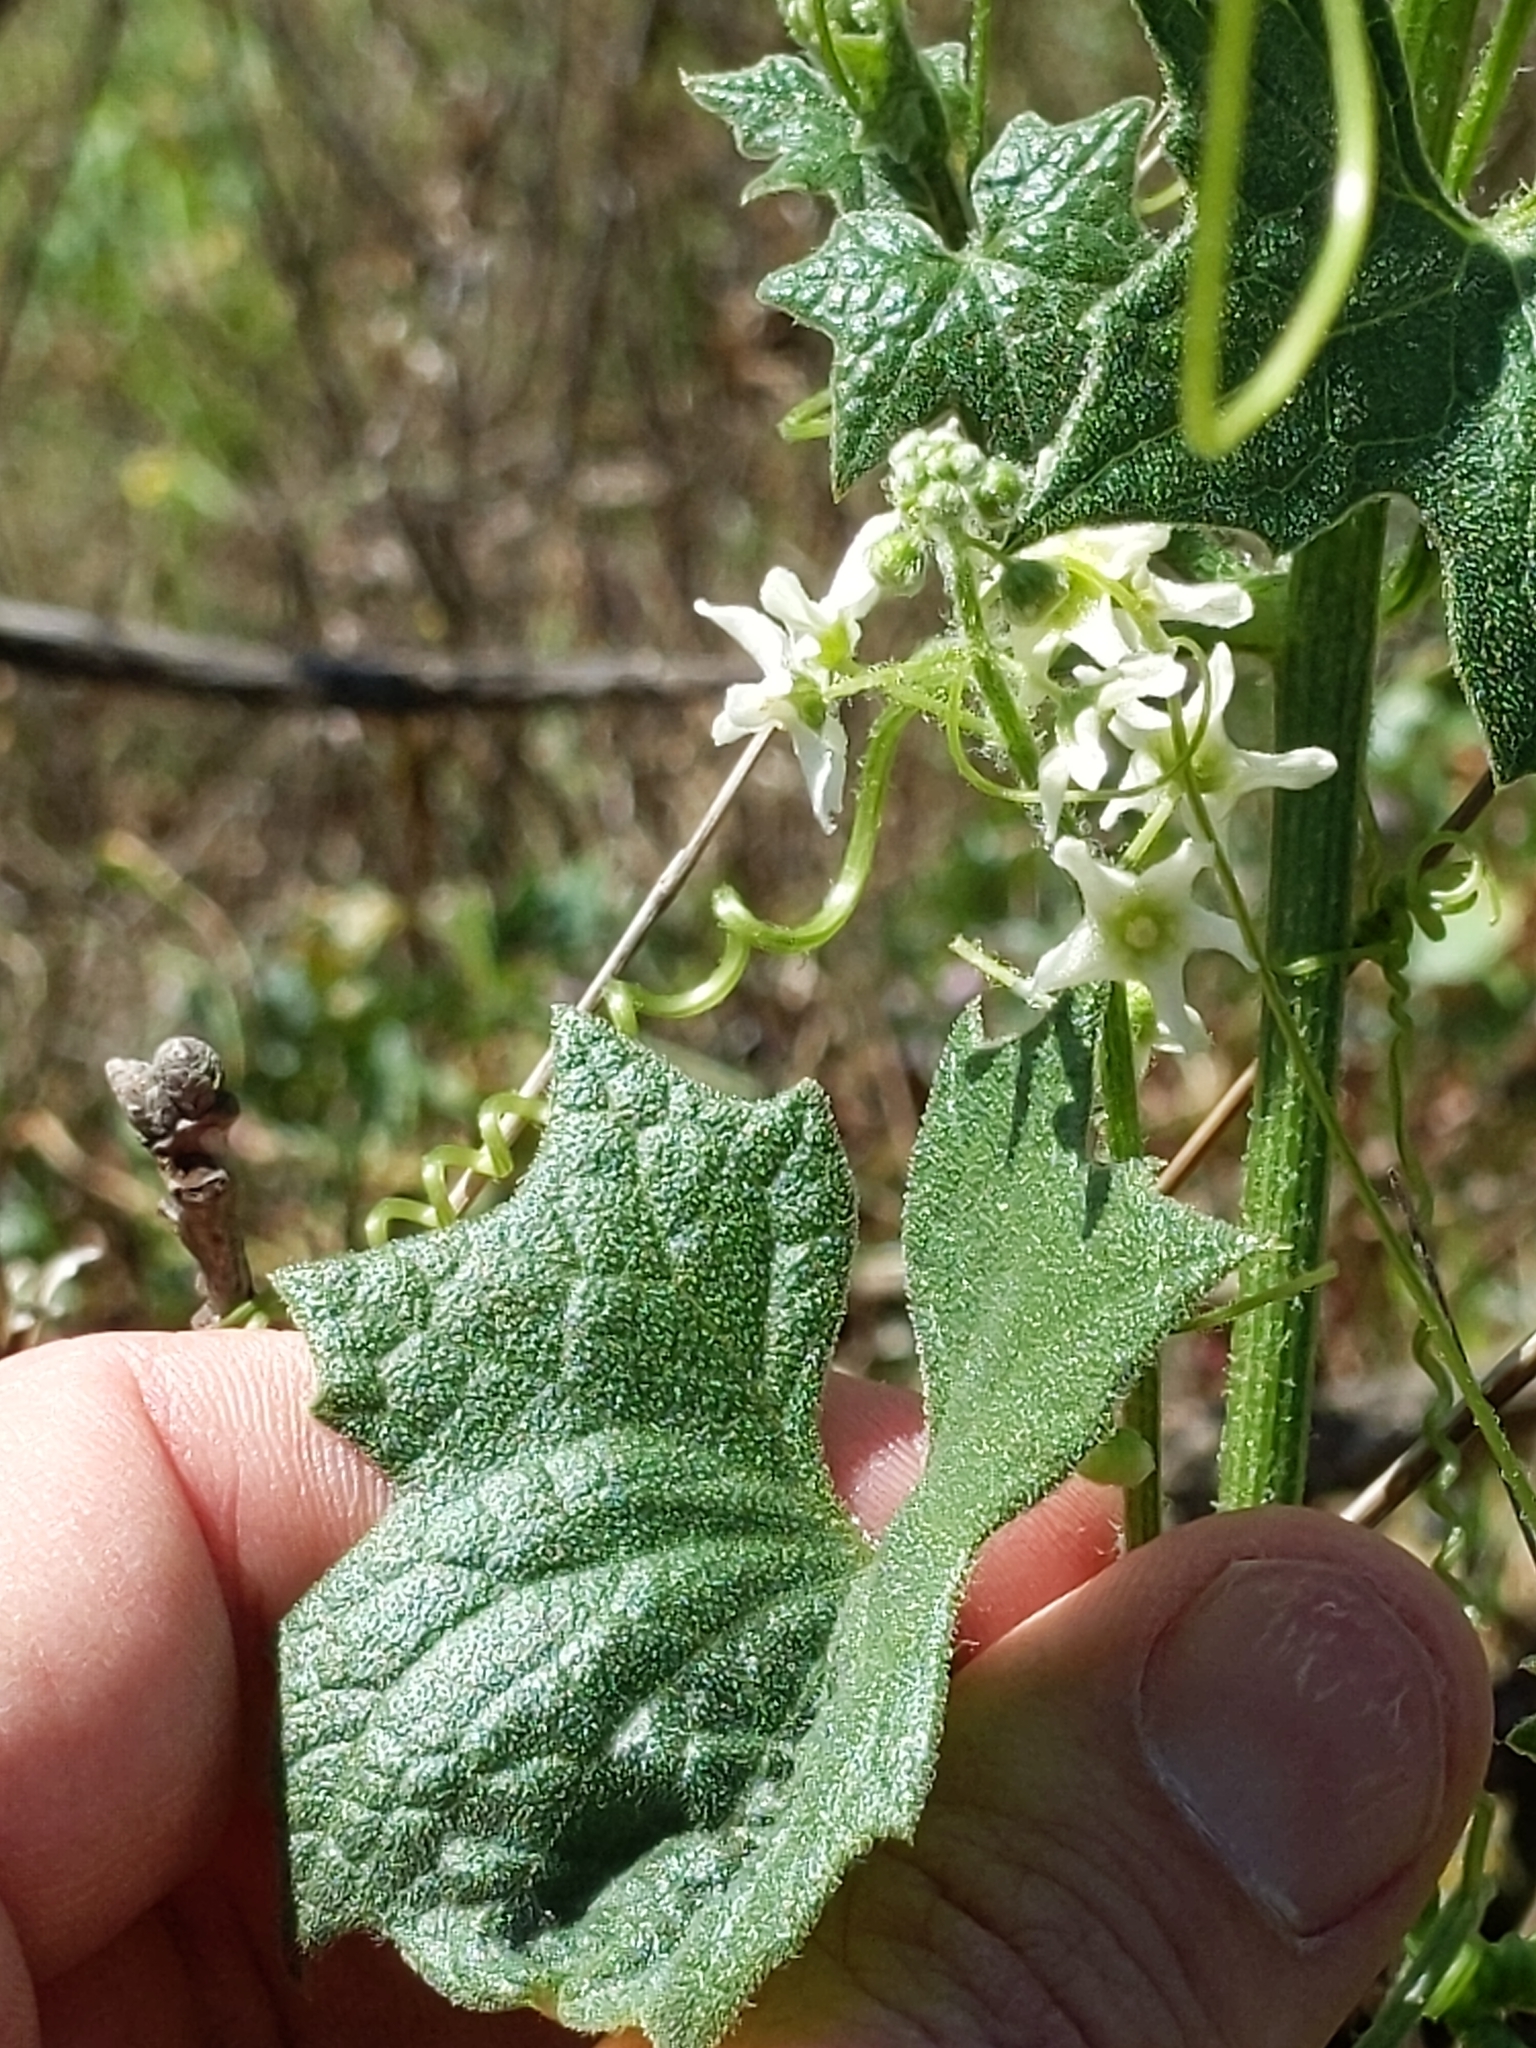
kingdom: Plantae
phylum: Tracheophyta
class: Magnoliopsida
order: Cucurbitales
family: Cucurbitaceae
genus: Marah
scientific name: Marah fabacea
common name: California manroot
